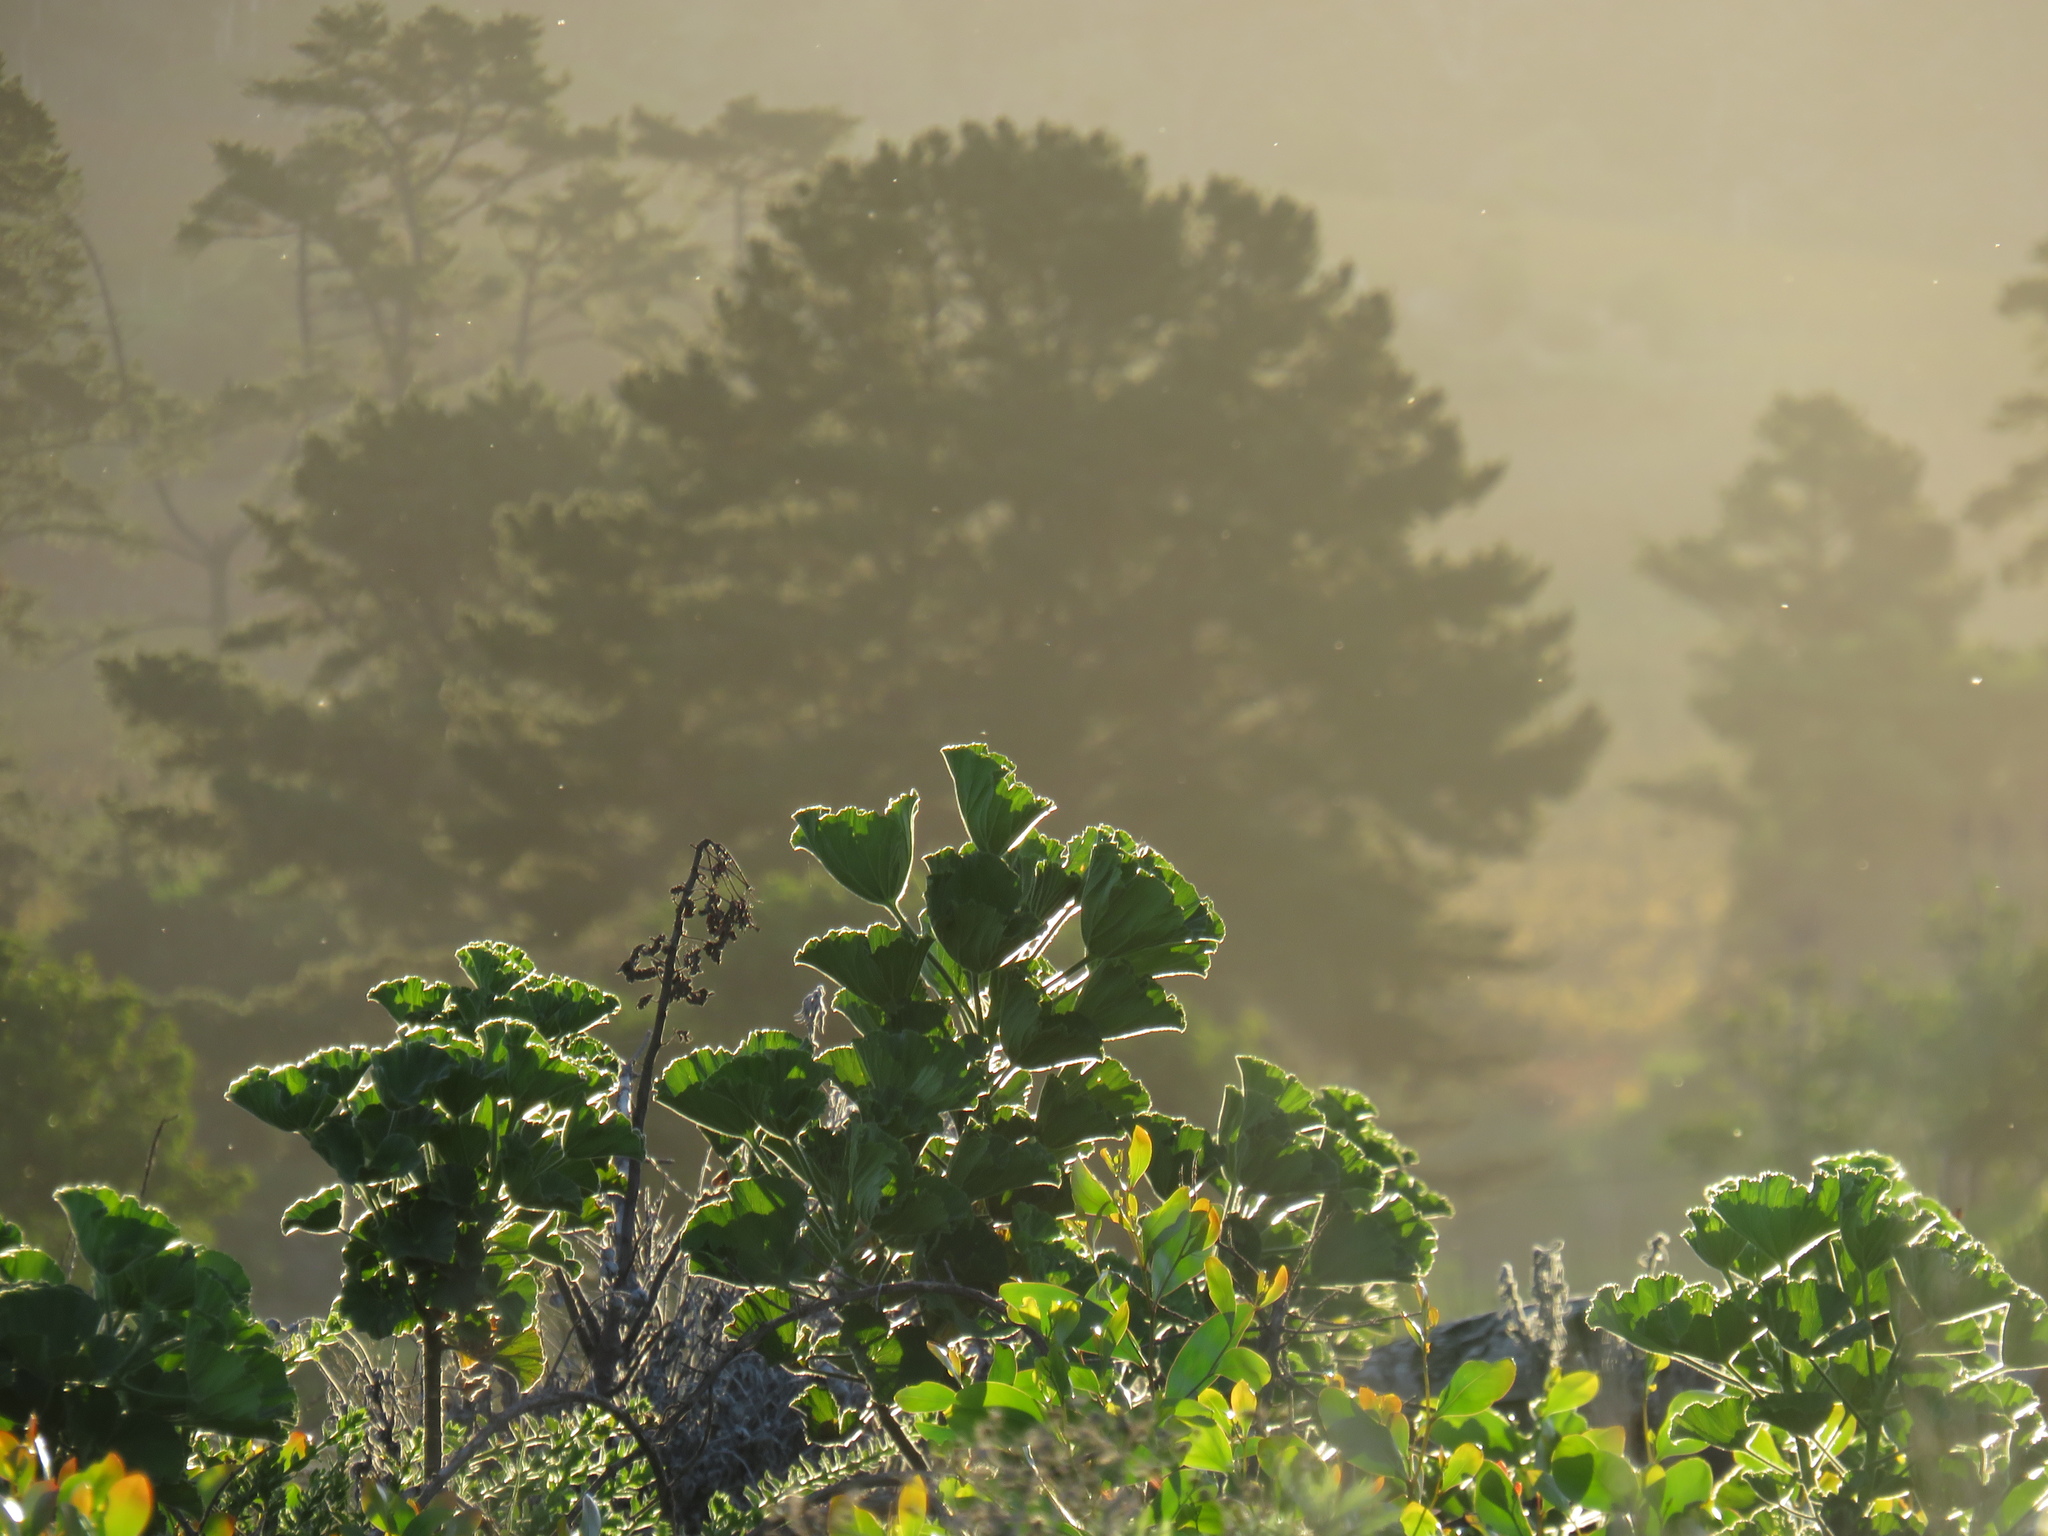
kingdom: Plantae
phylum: Tracheophyta
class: Magnoliopsida
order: Geraniales
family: Geraniaceae
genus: Pelargonium
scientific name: Pelargonium cucullatum
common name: Tree pelargonium
